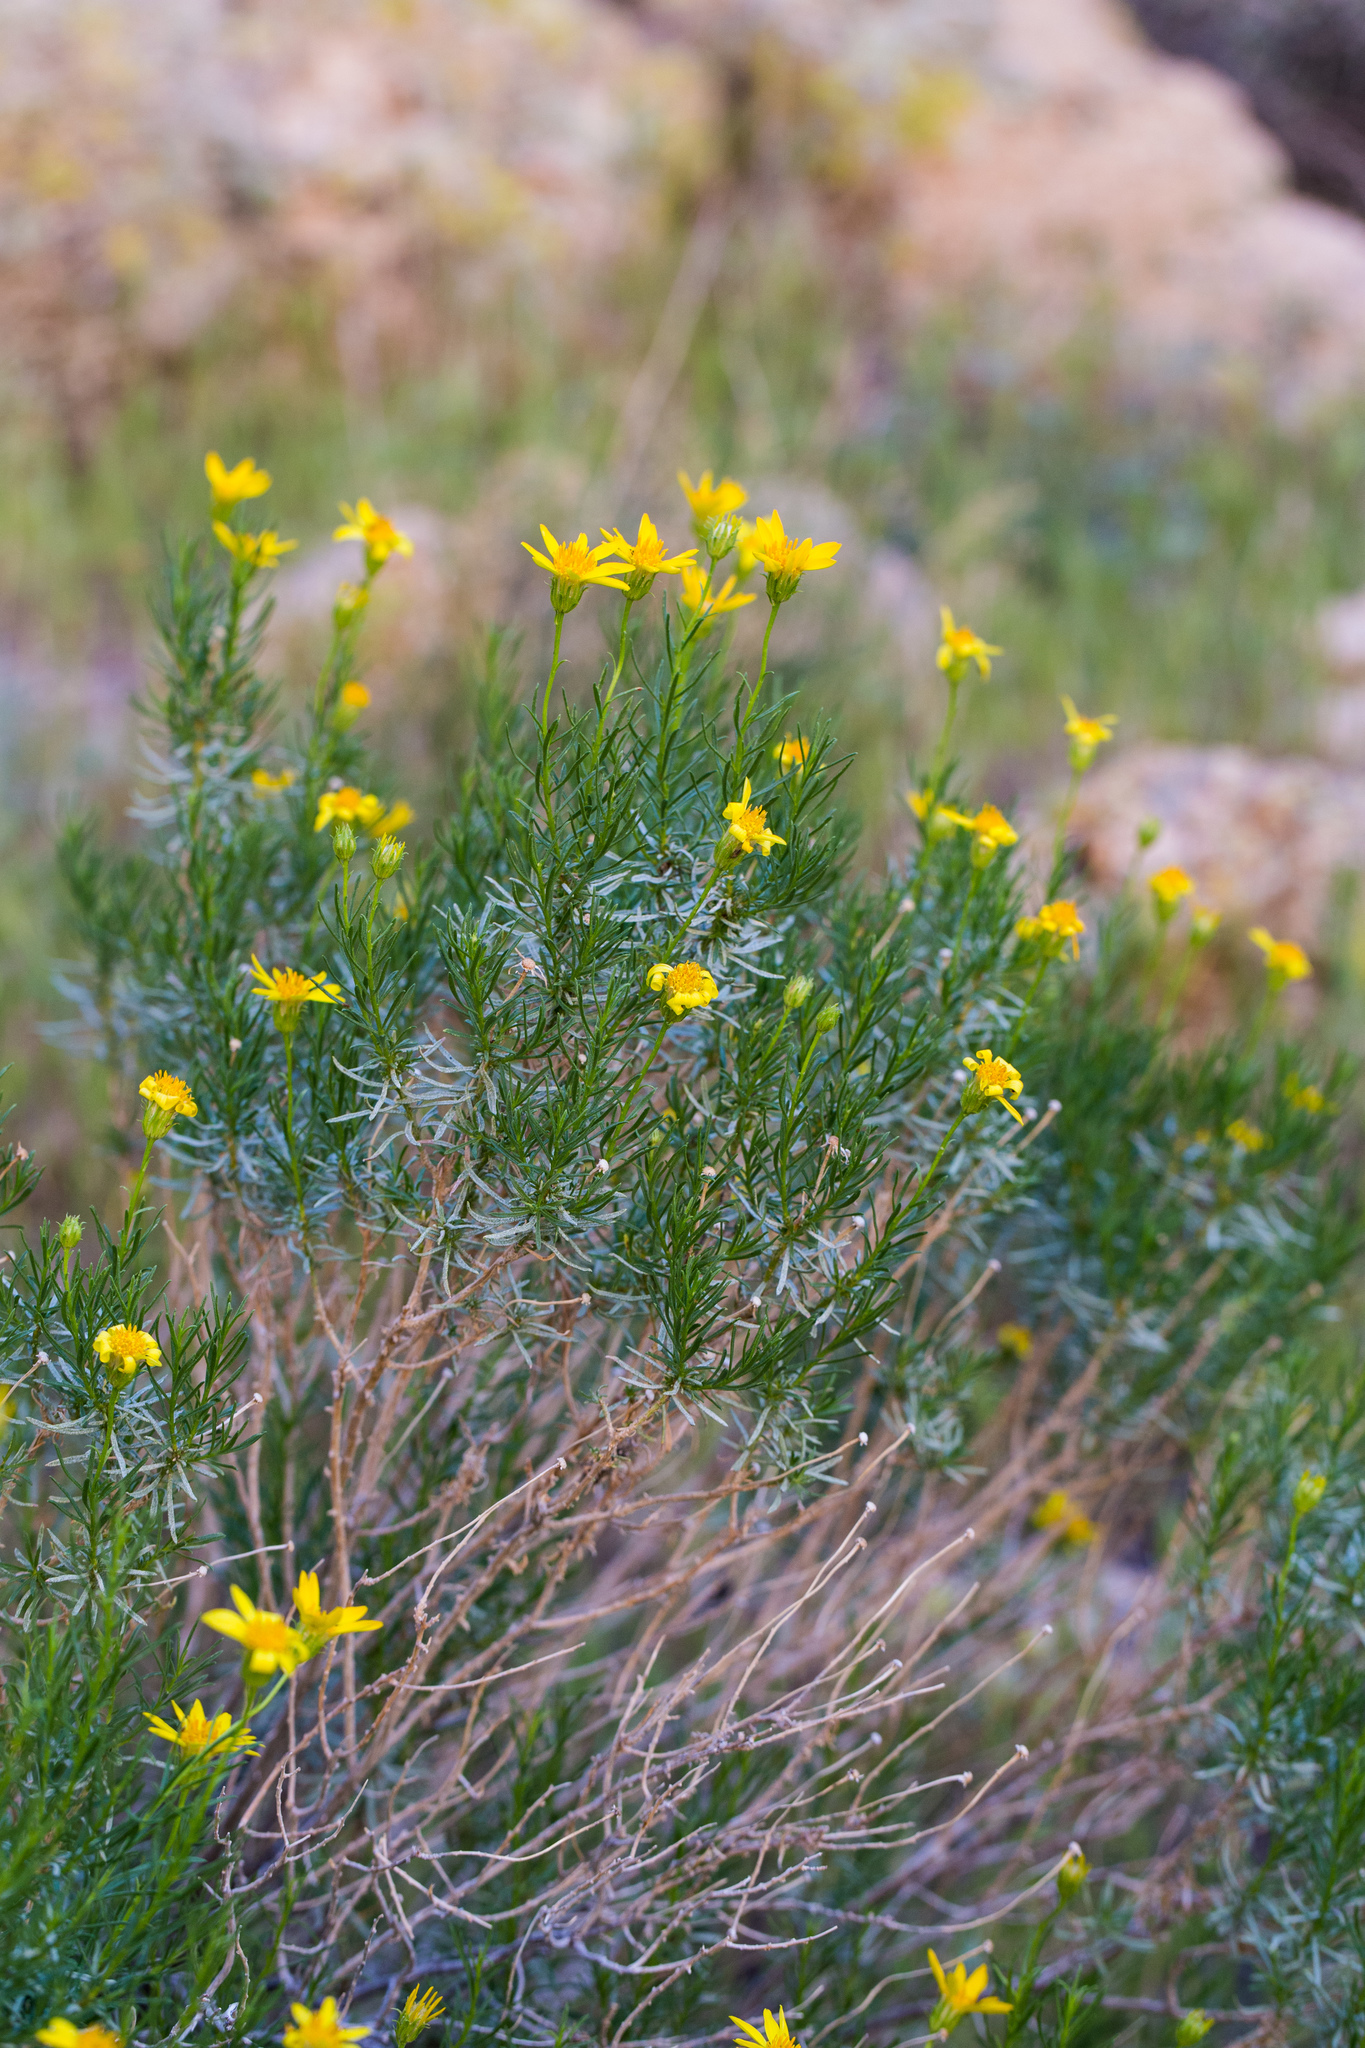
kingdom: Plantae
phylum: Tracheophyta
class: Magnoliopsida
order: Asterales
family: Asteraceae
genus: Ericameria
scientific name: Ericameria linearifolia
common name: Interior goldenbush
